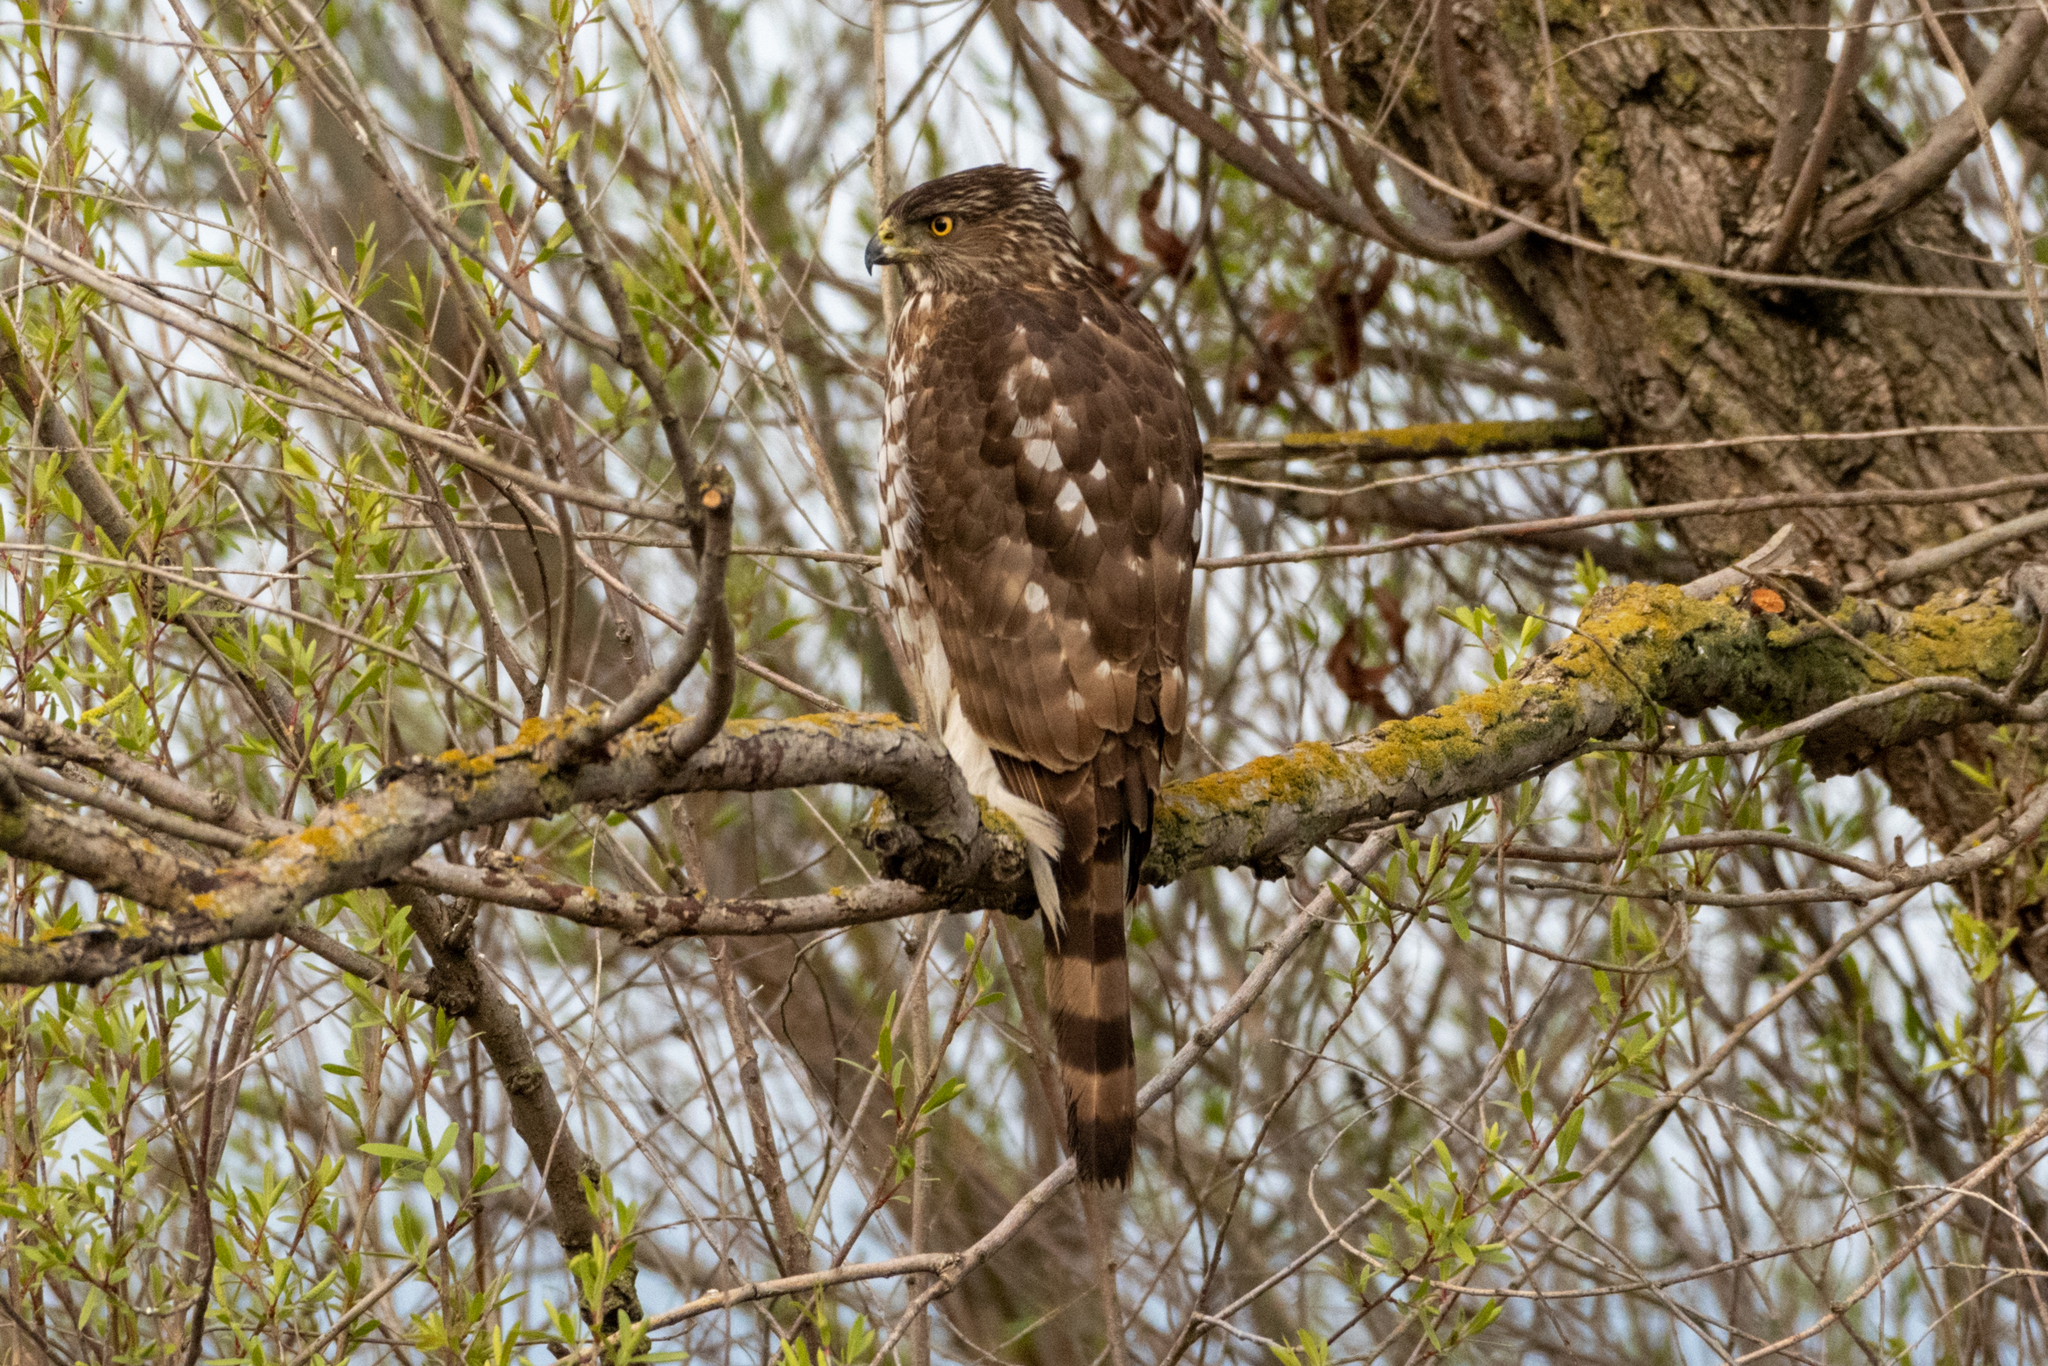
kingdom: Animalia
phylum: Chordata
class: Aves
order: Accipitriformes
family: Accipitridae
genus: Accipiter
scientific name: Accipiter cooperii
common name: Cooper's hawk
